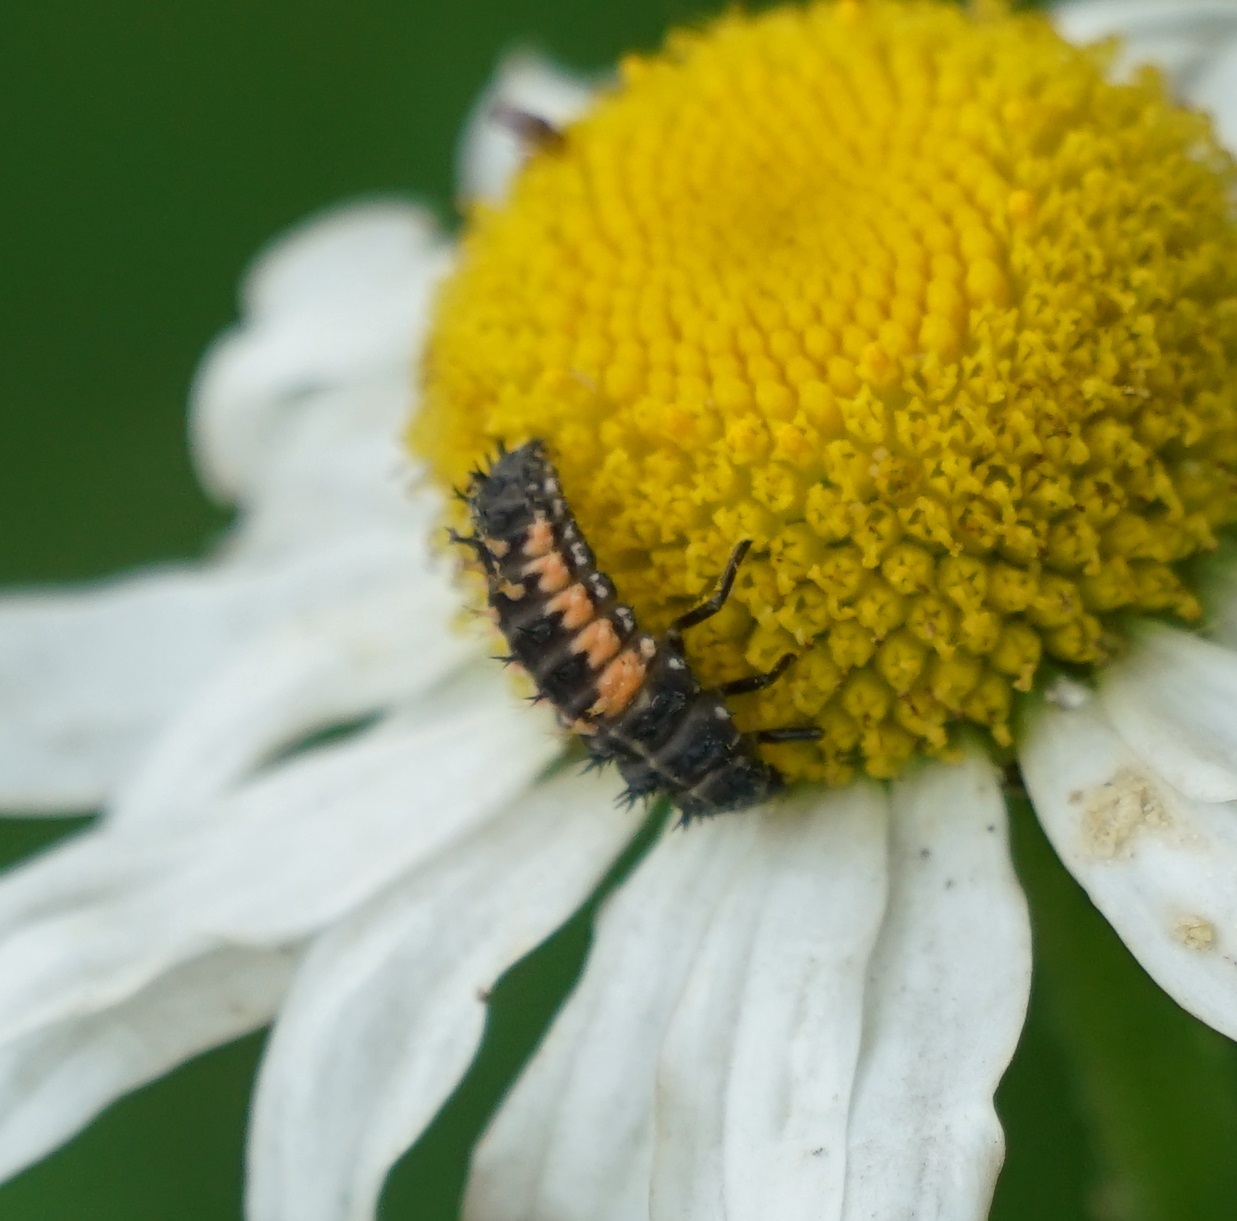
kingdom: Animalia
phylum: Arthropoda
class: Insecta
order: Coleoptera
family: Coccinellidae
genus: Harmonia
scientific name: Harmonia axyridis
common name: Harlequin ladybird
